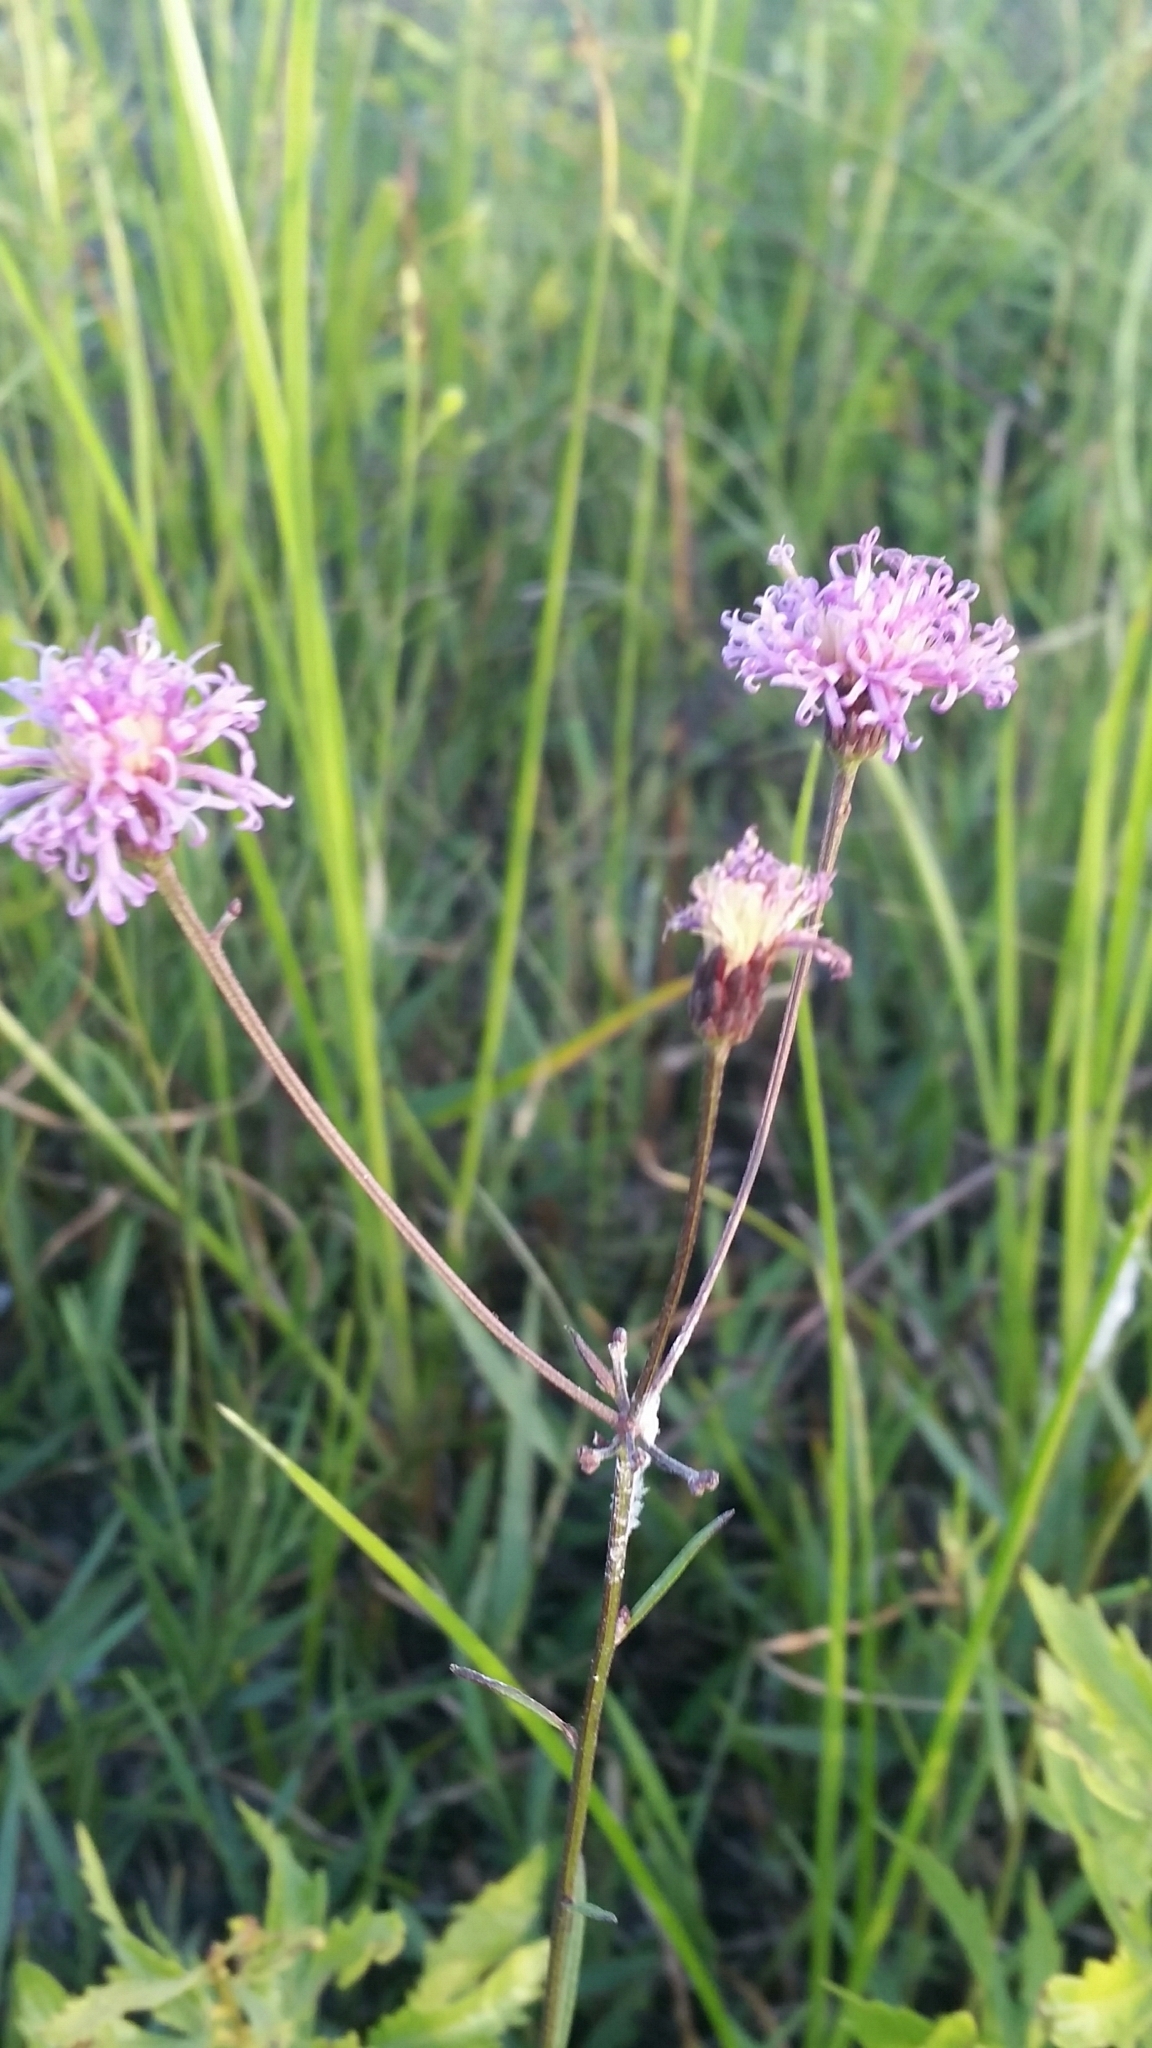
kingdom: Plantae
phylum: Tracheophyta
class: Magnoliopsida
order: Asterales
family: Asteraceae
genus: Vernonia
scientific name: Vernonia blodgettii
